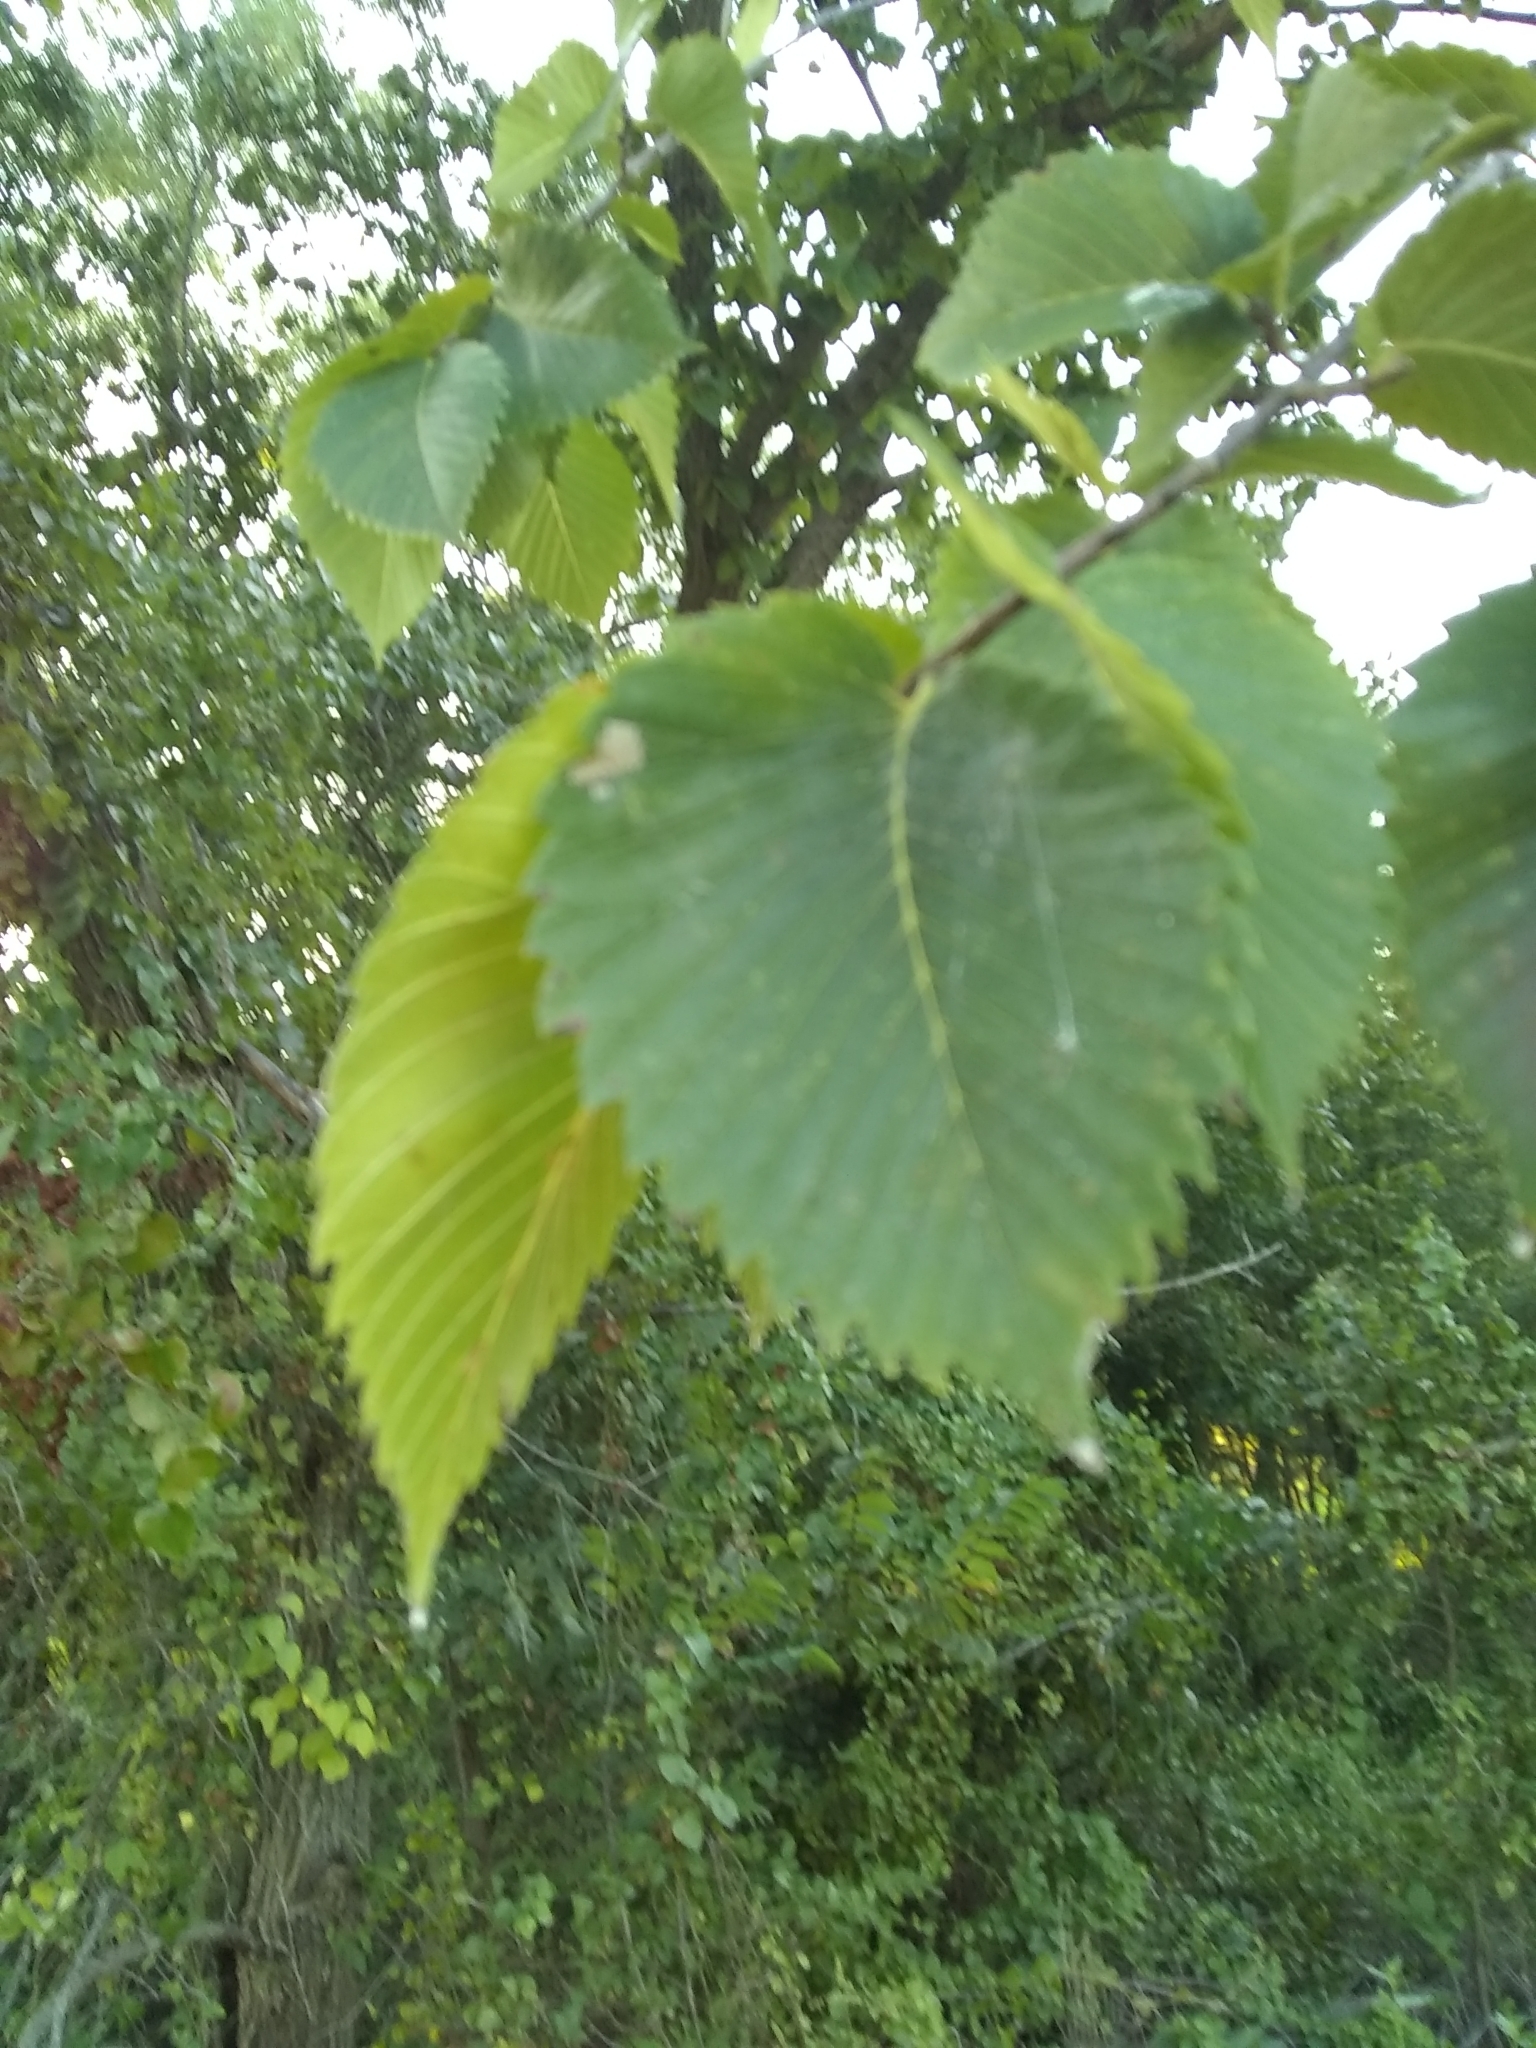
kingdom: Plantae
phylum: Tracheophyta
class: Magnoliopsida
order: Rosales
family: Ulmaceae
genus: Ulmus
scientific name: Ulmus americana
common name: American elm
